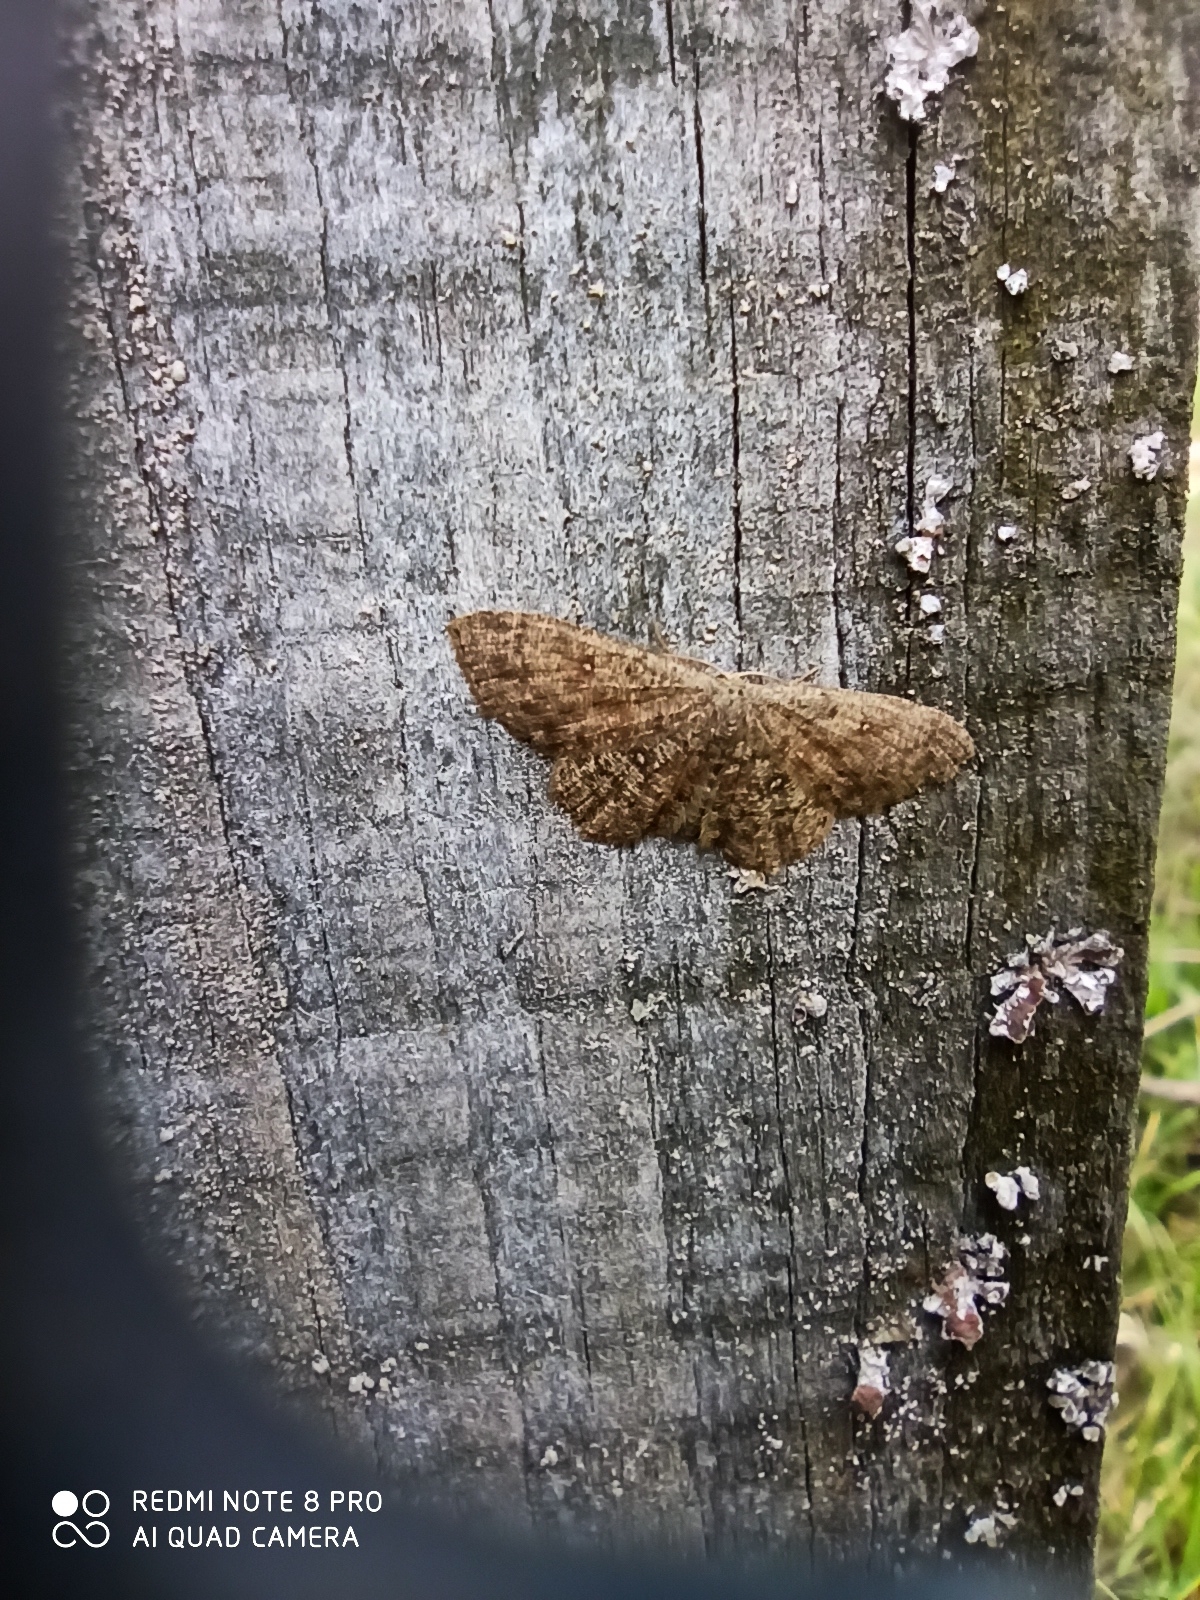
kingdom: Animalia
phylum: Arthropoda
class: Insecta
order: Lepidoptera
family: Geometridae
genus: Cyclophora
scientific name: Cyclophora pendularia
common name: Dingy mocha
